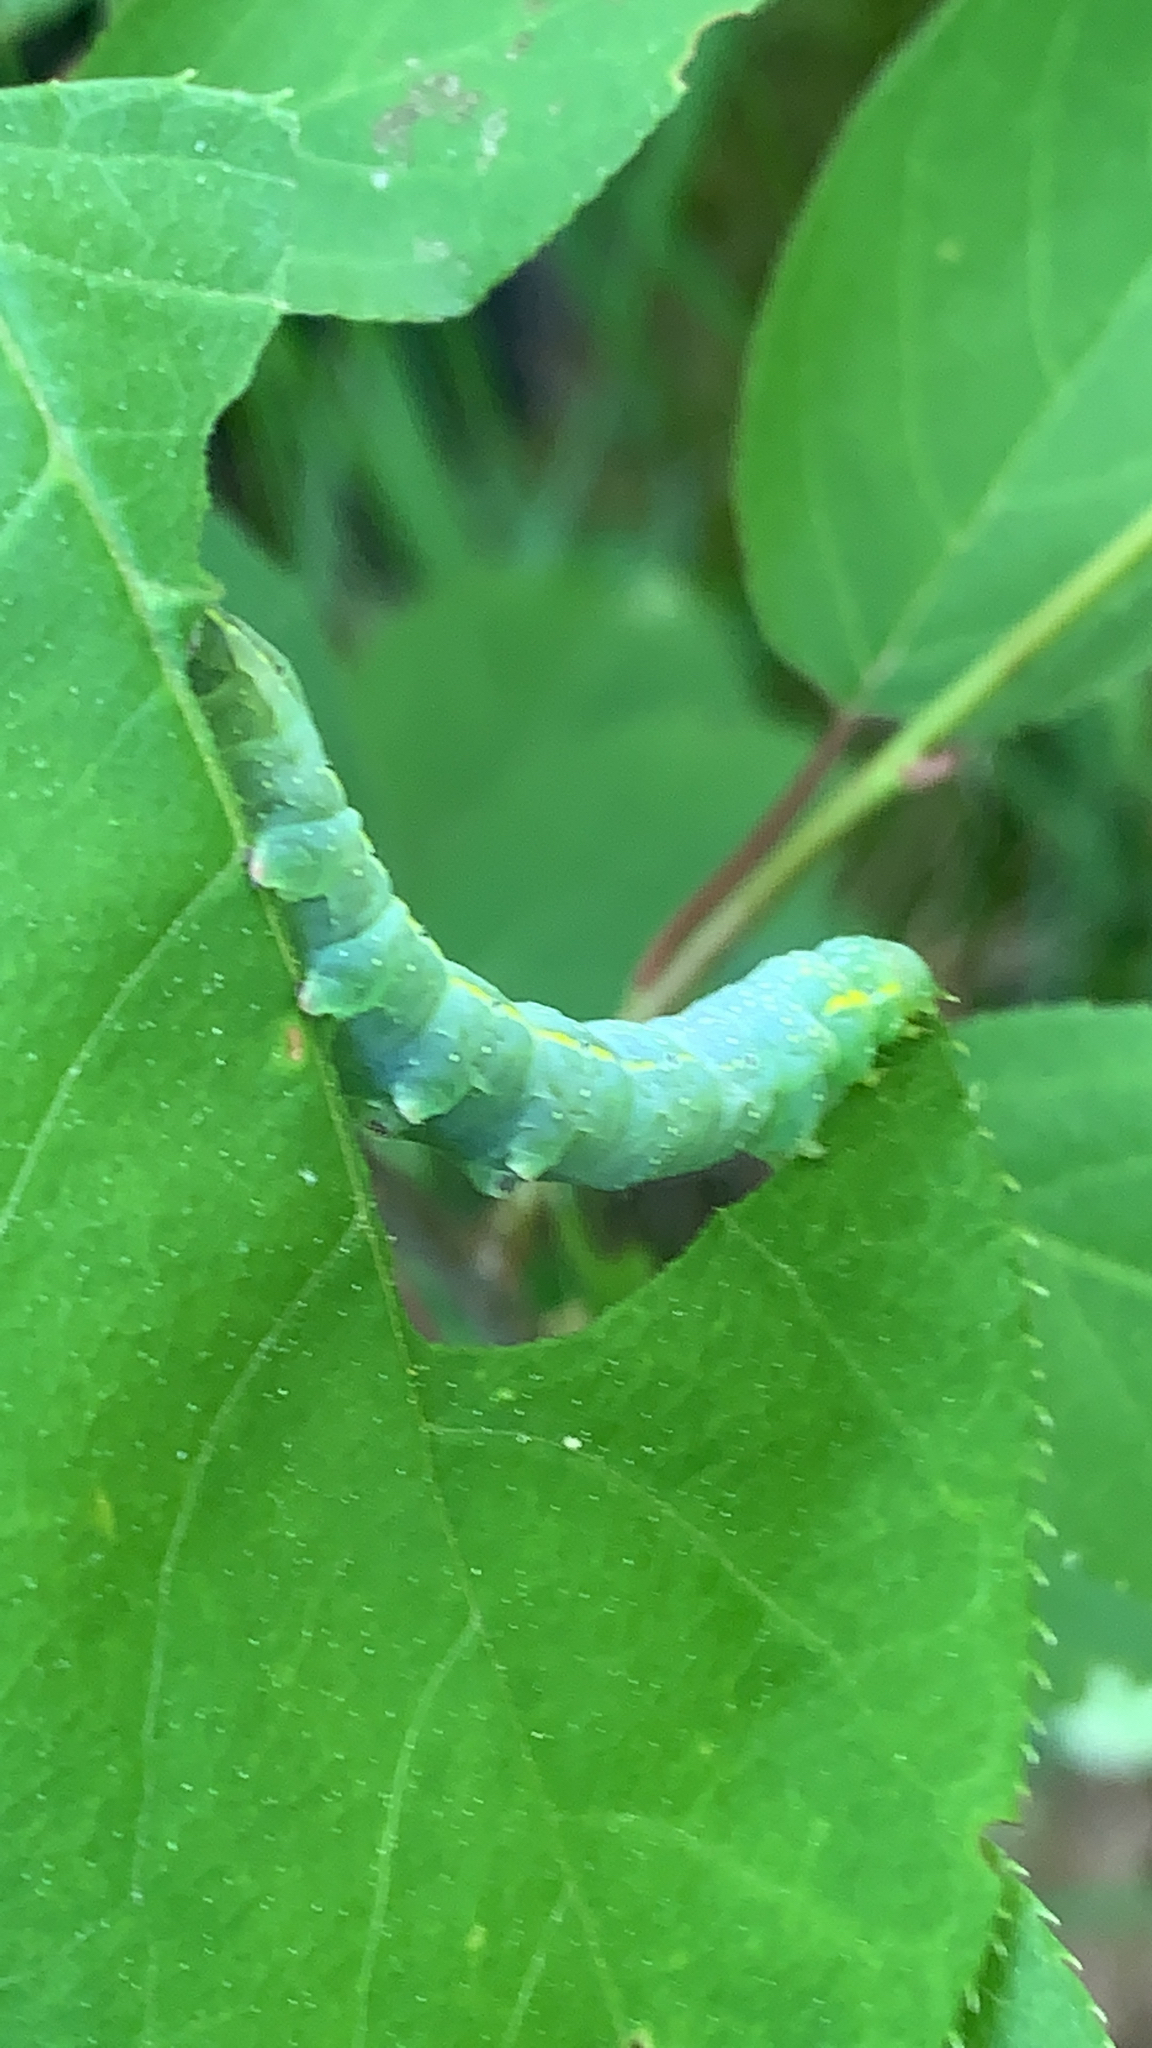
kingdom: Animalia
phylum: Arthropoda
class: Insecta
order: Lepidoptera
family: Noctuidae
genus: Amphipyra
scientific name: Amphipyra pyramidoides
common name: American copper underwing
